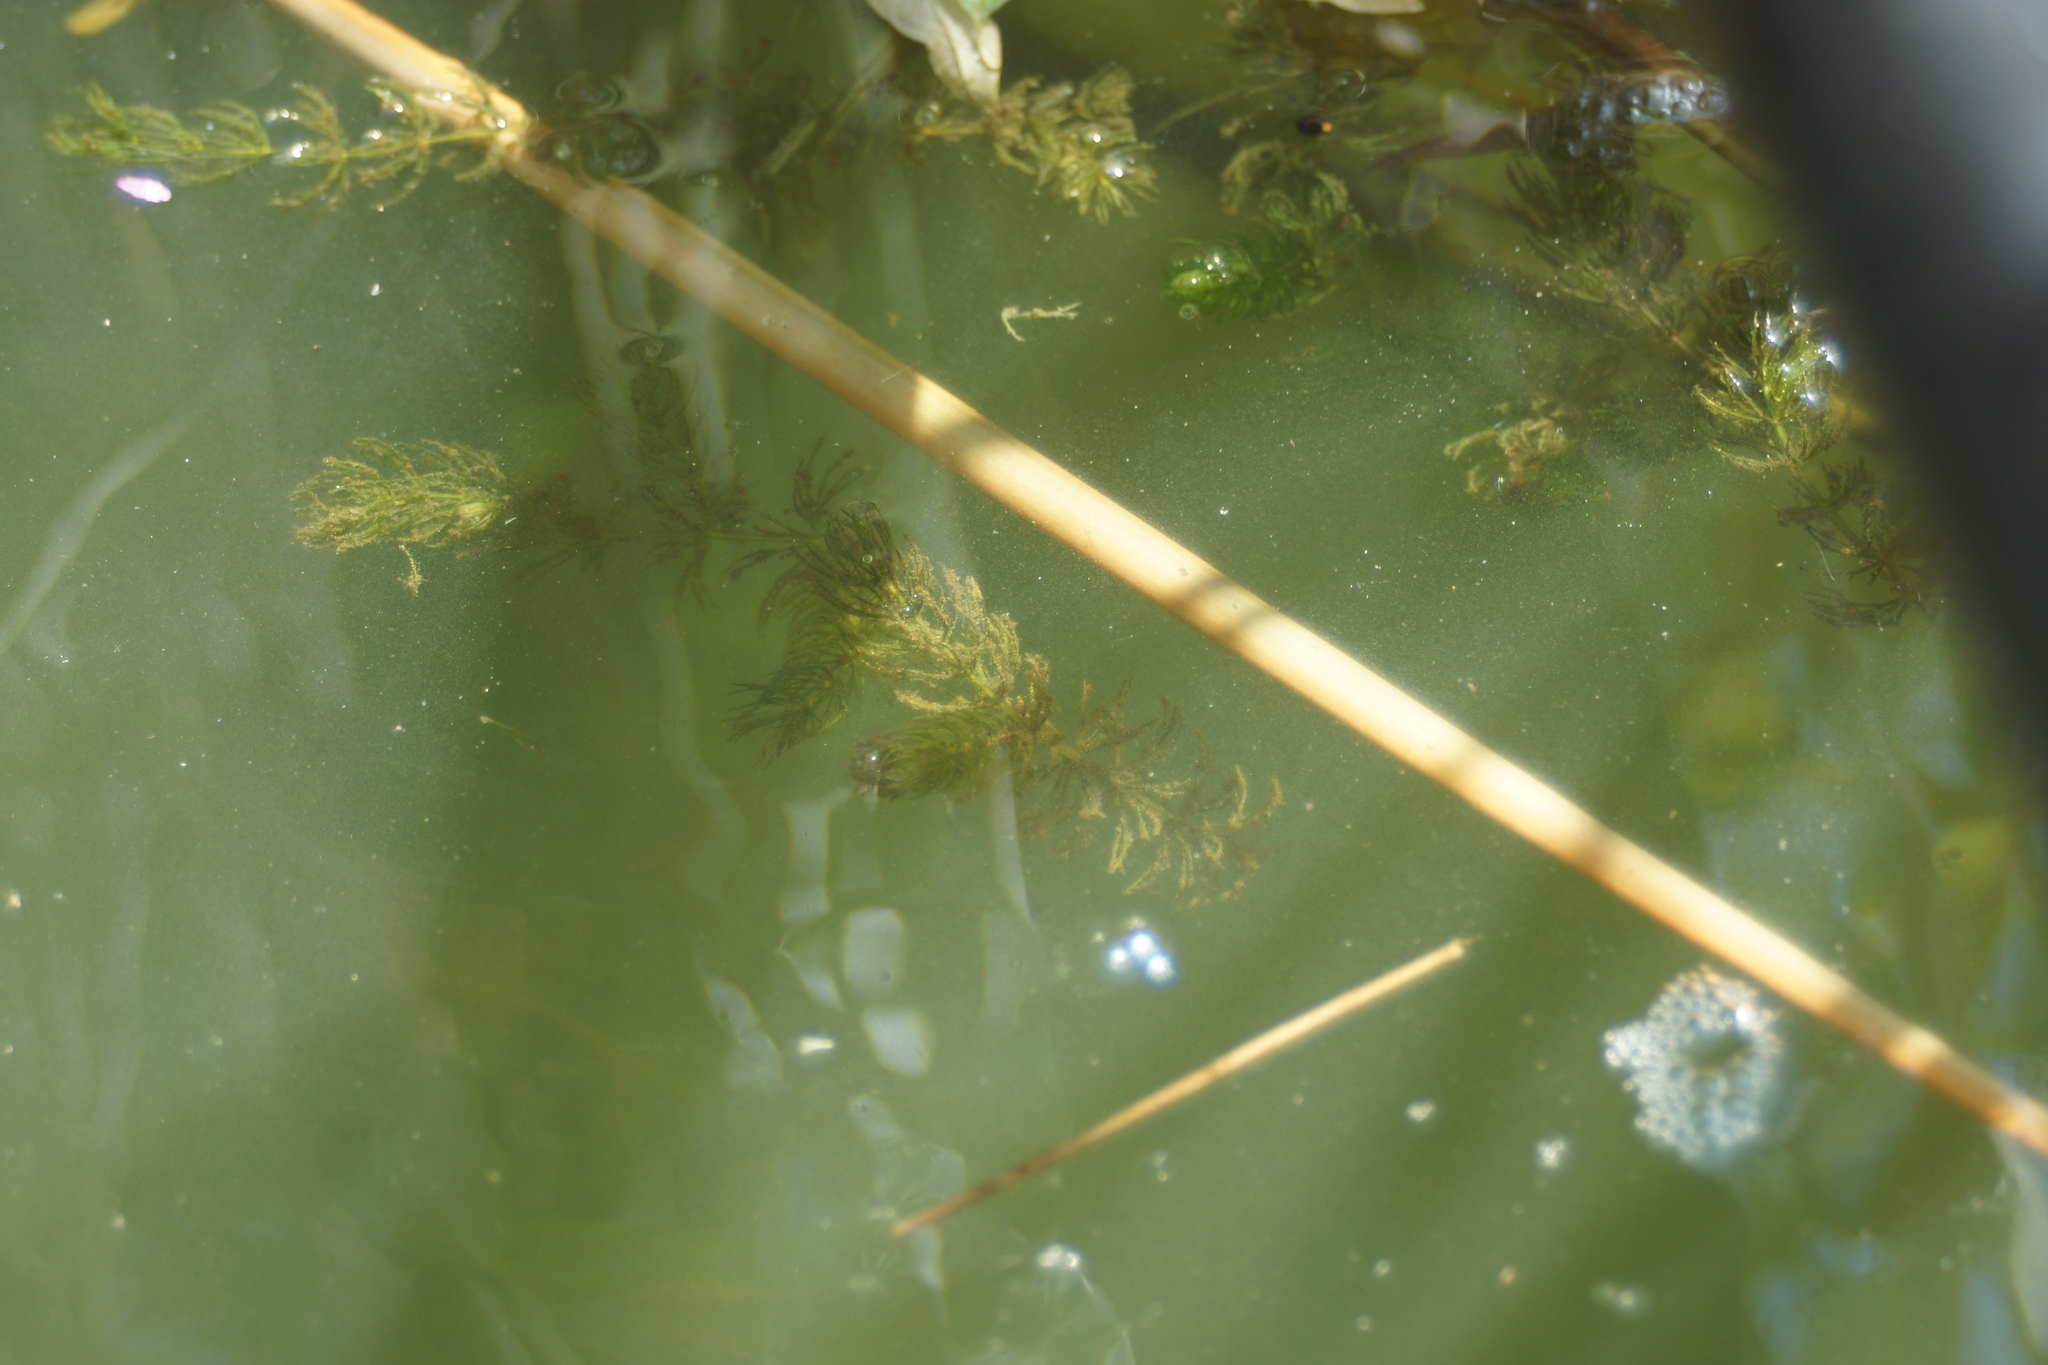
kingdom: Plantae
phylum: Tracheophyta
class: Magnoliopsida
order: Ceratophyllales
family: Ceratophyllaceae
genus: Ceratophyllum
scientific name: Ceratophyllum demersum
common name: Rigid hornwort
